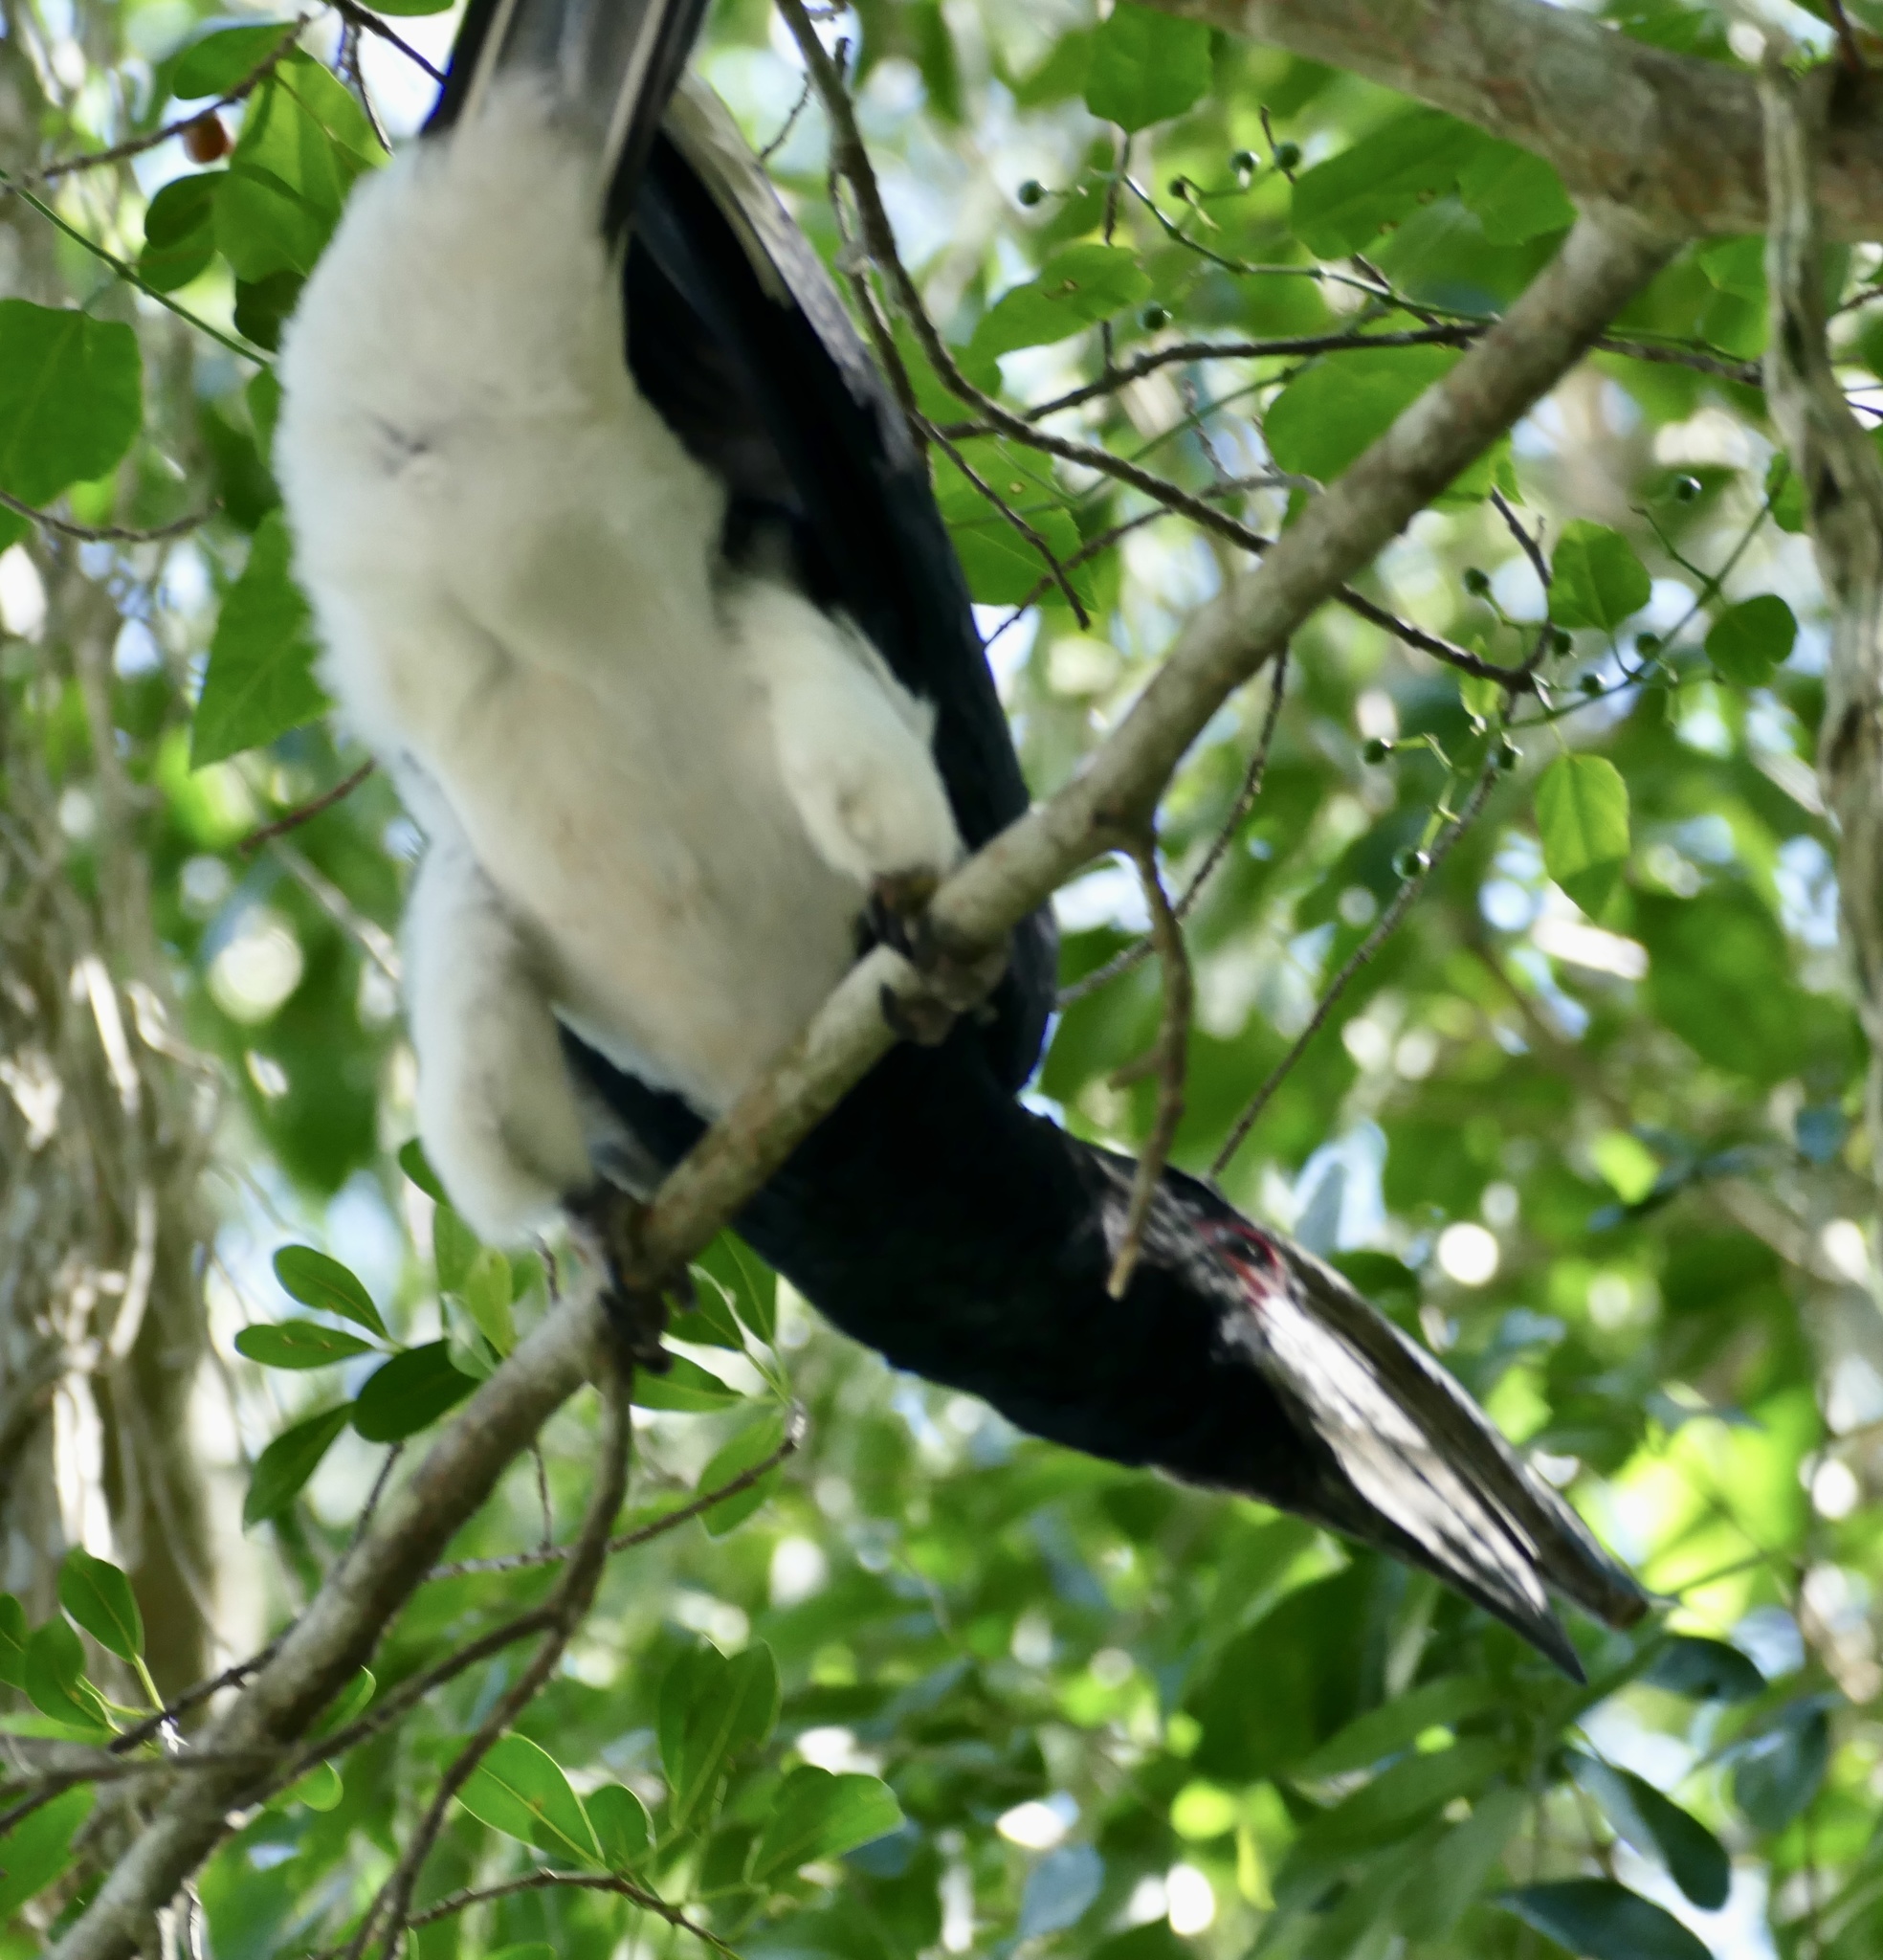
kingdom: Animalia
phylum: Chordata
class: Aves
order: Bucerotiformes
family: Bucerotidae
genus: Bycanistes
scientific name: Bycanistes bucinator
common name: Trumpeter hornbill
